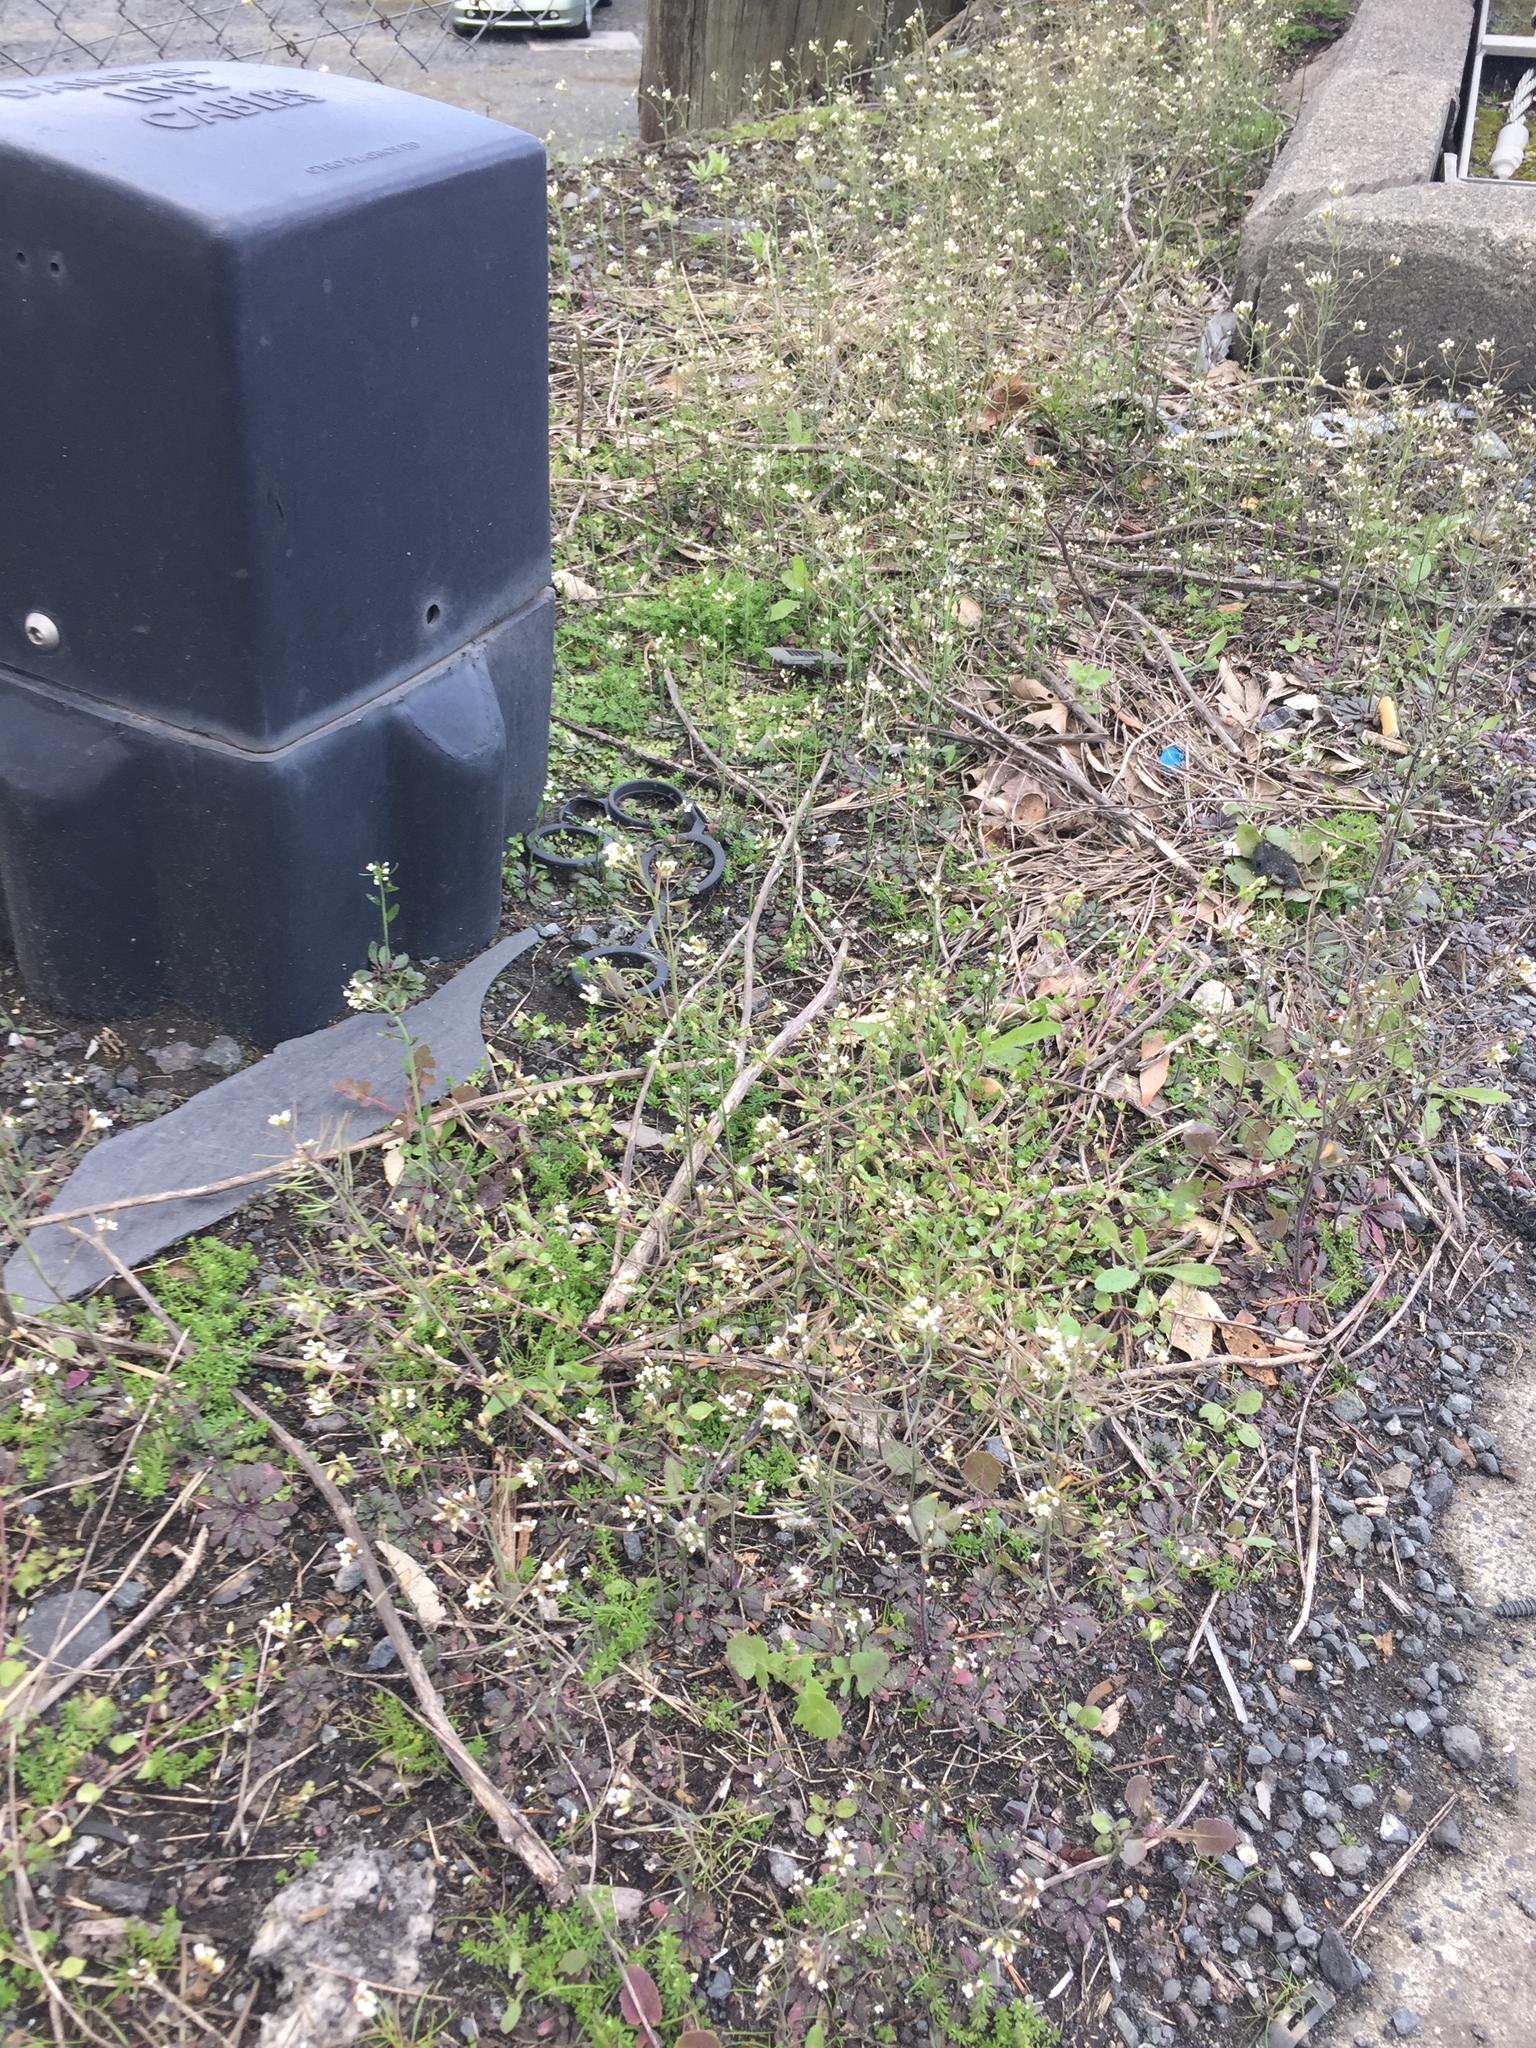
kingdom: Plantae
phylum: Tracheophyta
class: Magnoliopsida
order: Brassicales
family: Brassicaceae
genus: Arabidopsis
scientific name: Arabidopsis thaliana
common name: Thale cress
